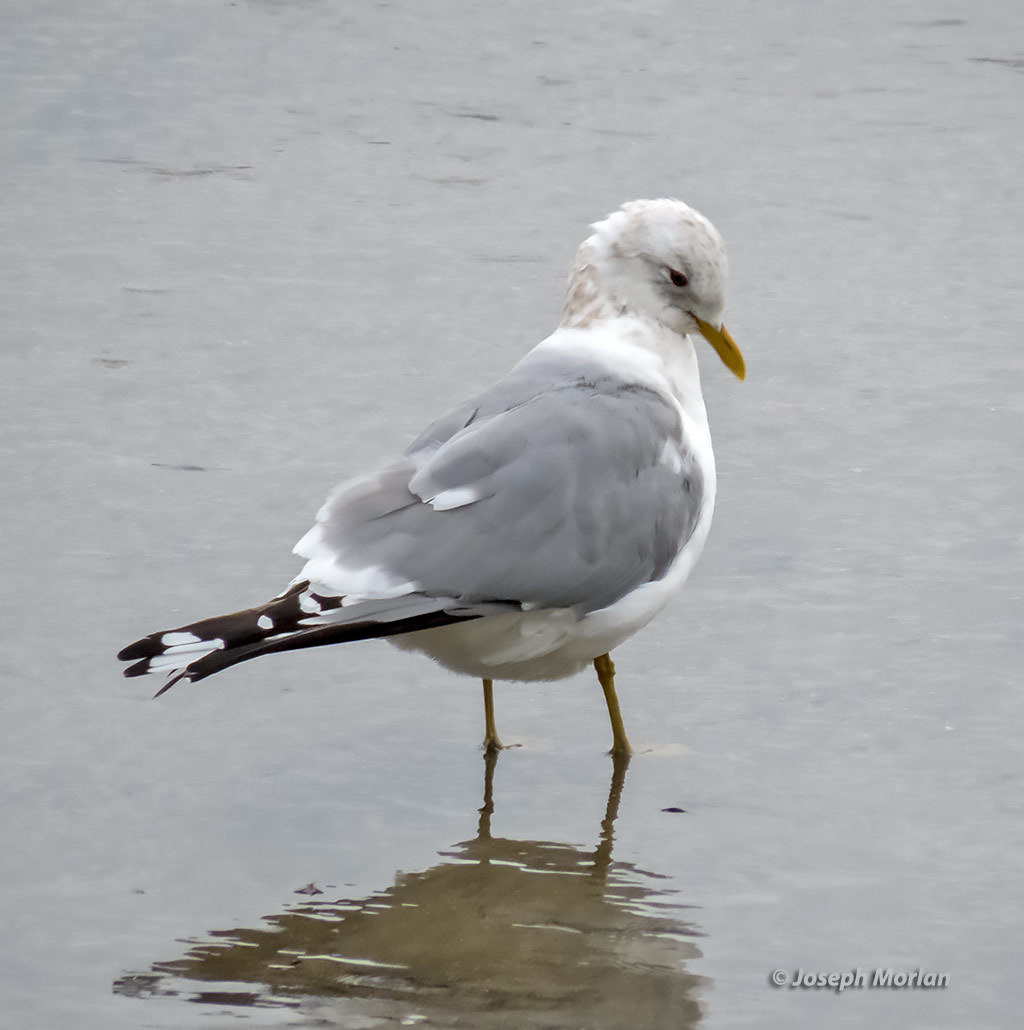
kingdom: Animalia
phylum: Chordata
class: Aves
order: Charadriiformes
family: Laridae
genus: Larus
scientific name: Larus brachyrhynchus
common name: Short-billed gull
